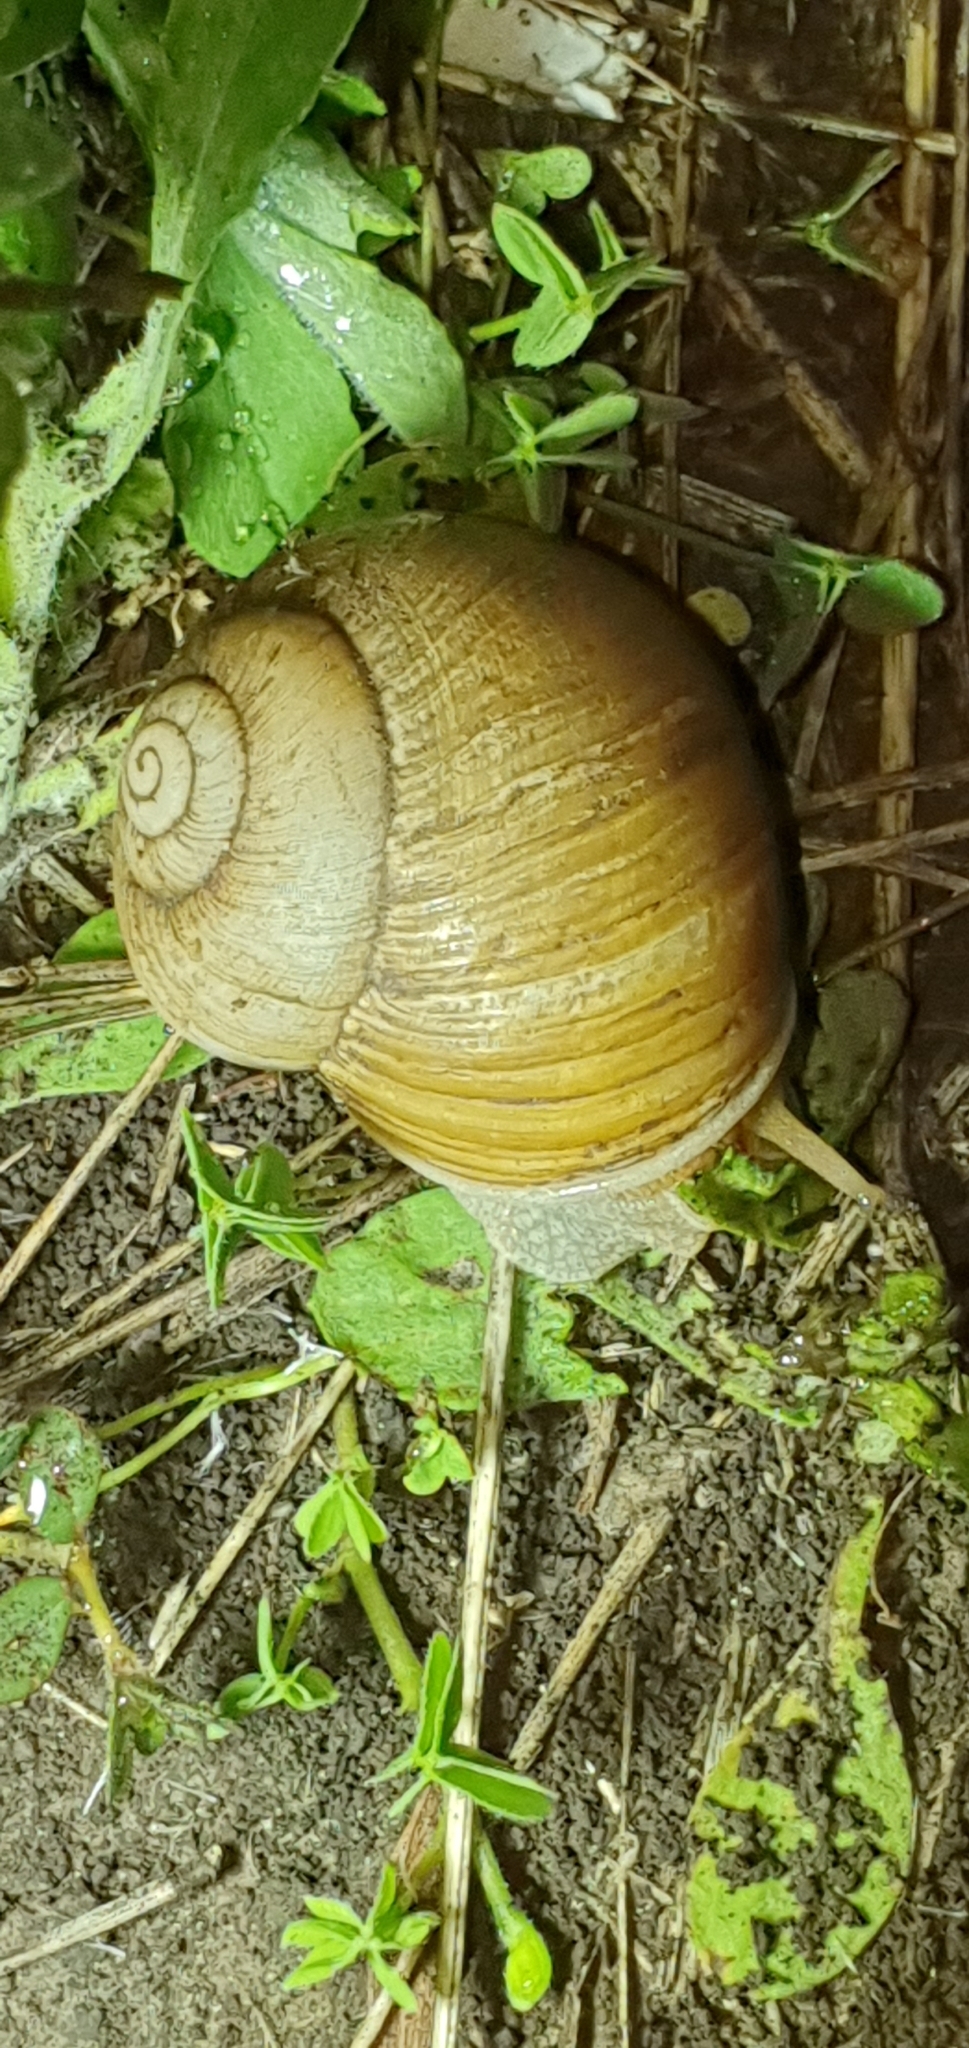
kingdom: Animalia
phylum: Mollusca
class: Gastropoda
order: Stylommatophora
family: Camaenidae
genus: Xanthomelon
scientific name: Xanthomelon pachystylum
